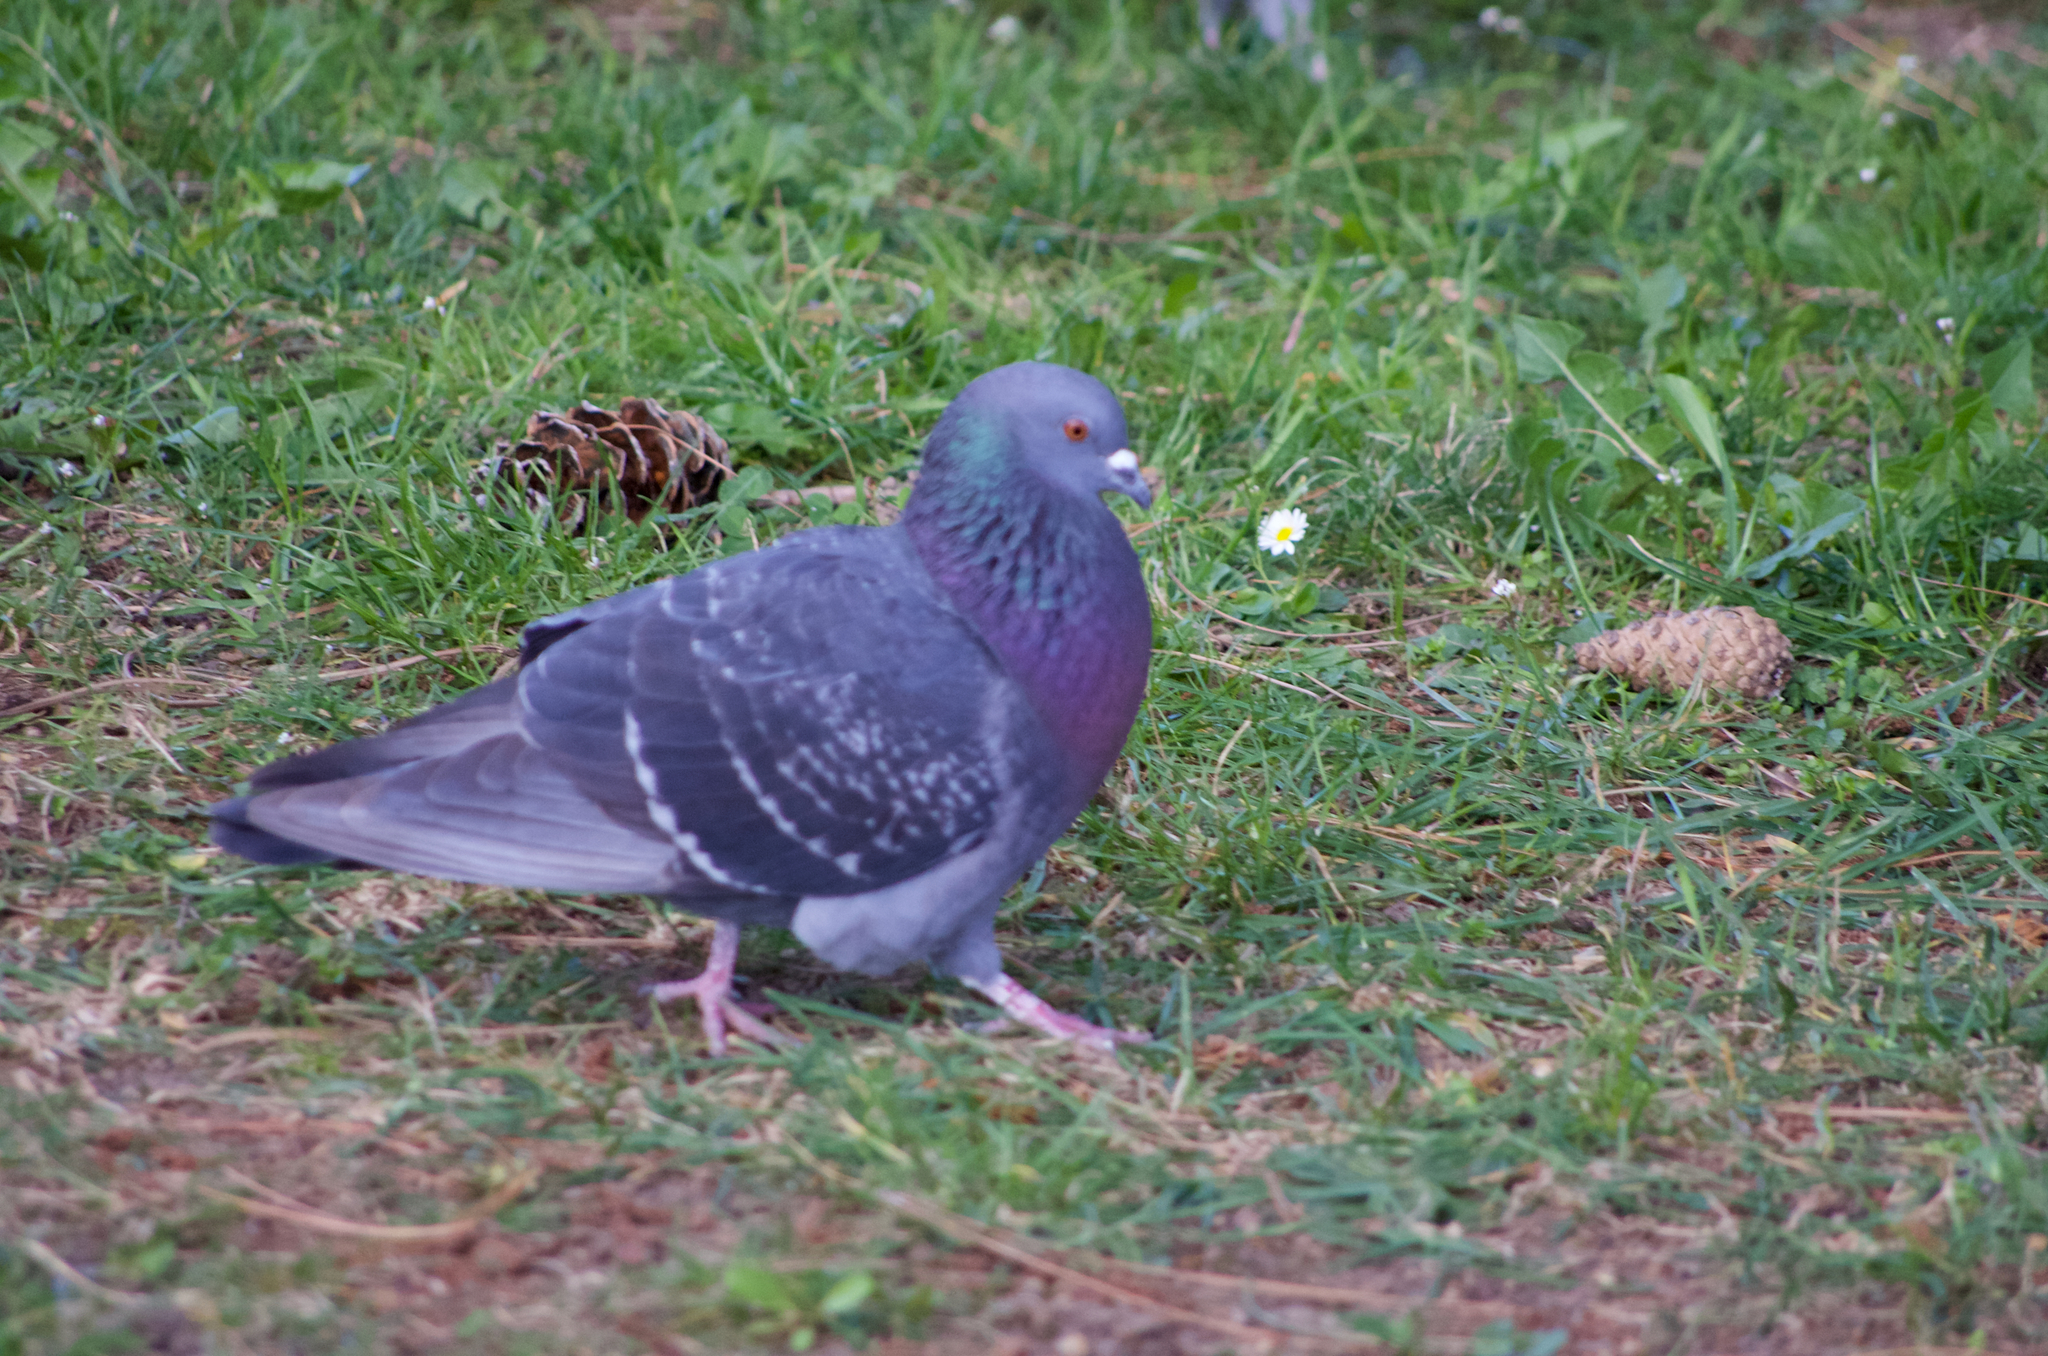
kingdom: Animalia
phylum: Chordata
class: Aves
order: Columbiformes
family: Columbidae
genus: Columba
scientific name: Columba livia
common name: Rock pigeon
